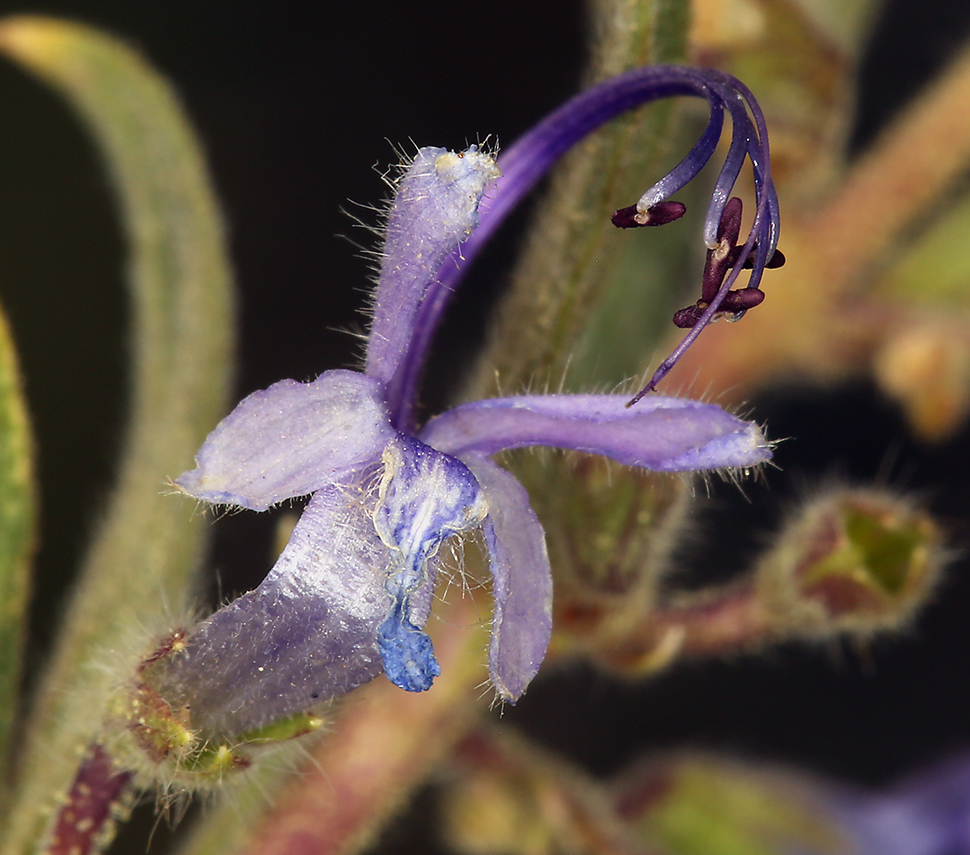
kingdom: Plantae
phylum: Tracheophyta
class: Magnoliopsida
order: Lamiales
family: Lamiaceae
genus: Trichostema
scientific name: Trichostema lanceolatum
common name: Vinegar-weed
